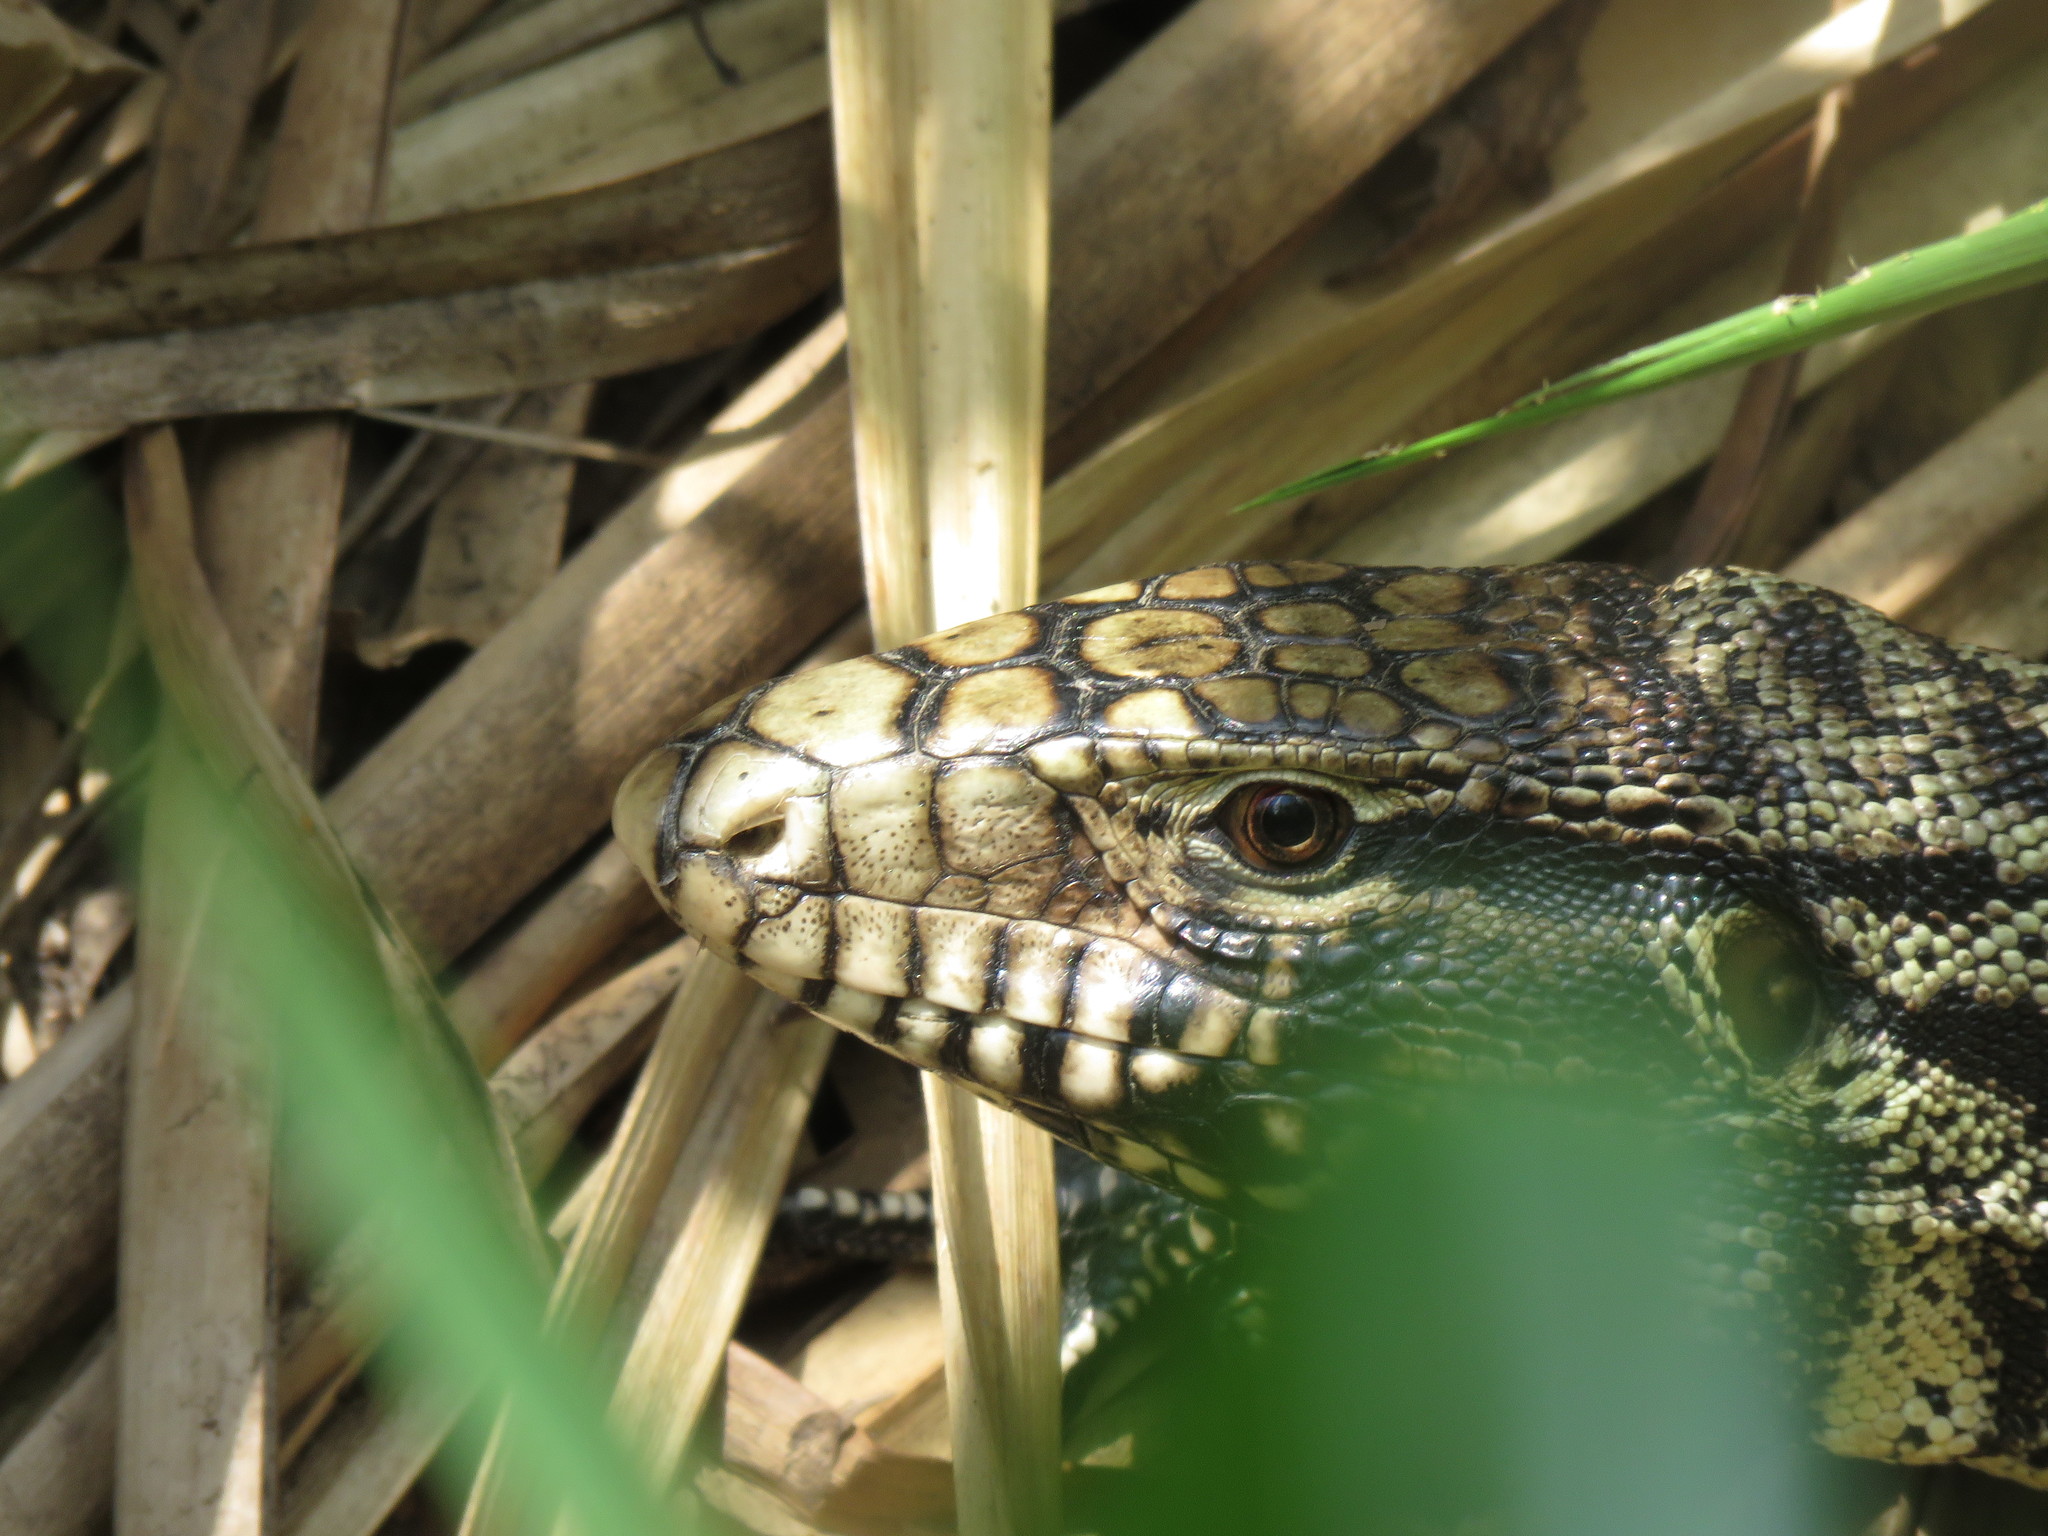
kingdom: Animalia
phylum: Chordata
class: Squamata
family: Teiidae
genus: Salvator
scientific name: Salvator merianae
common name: Argentine black and white tegu
